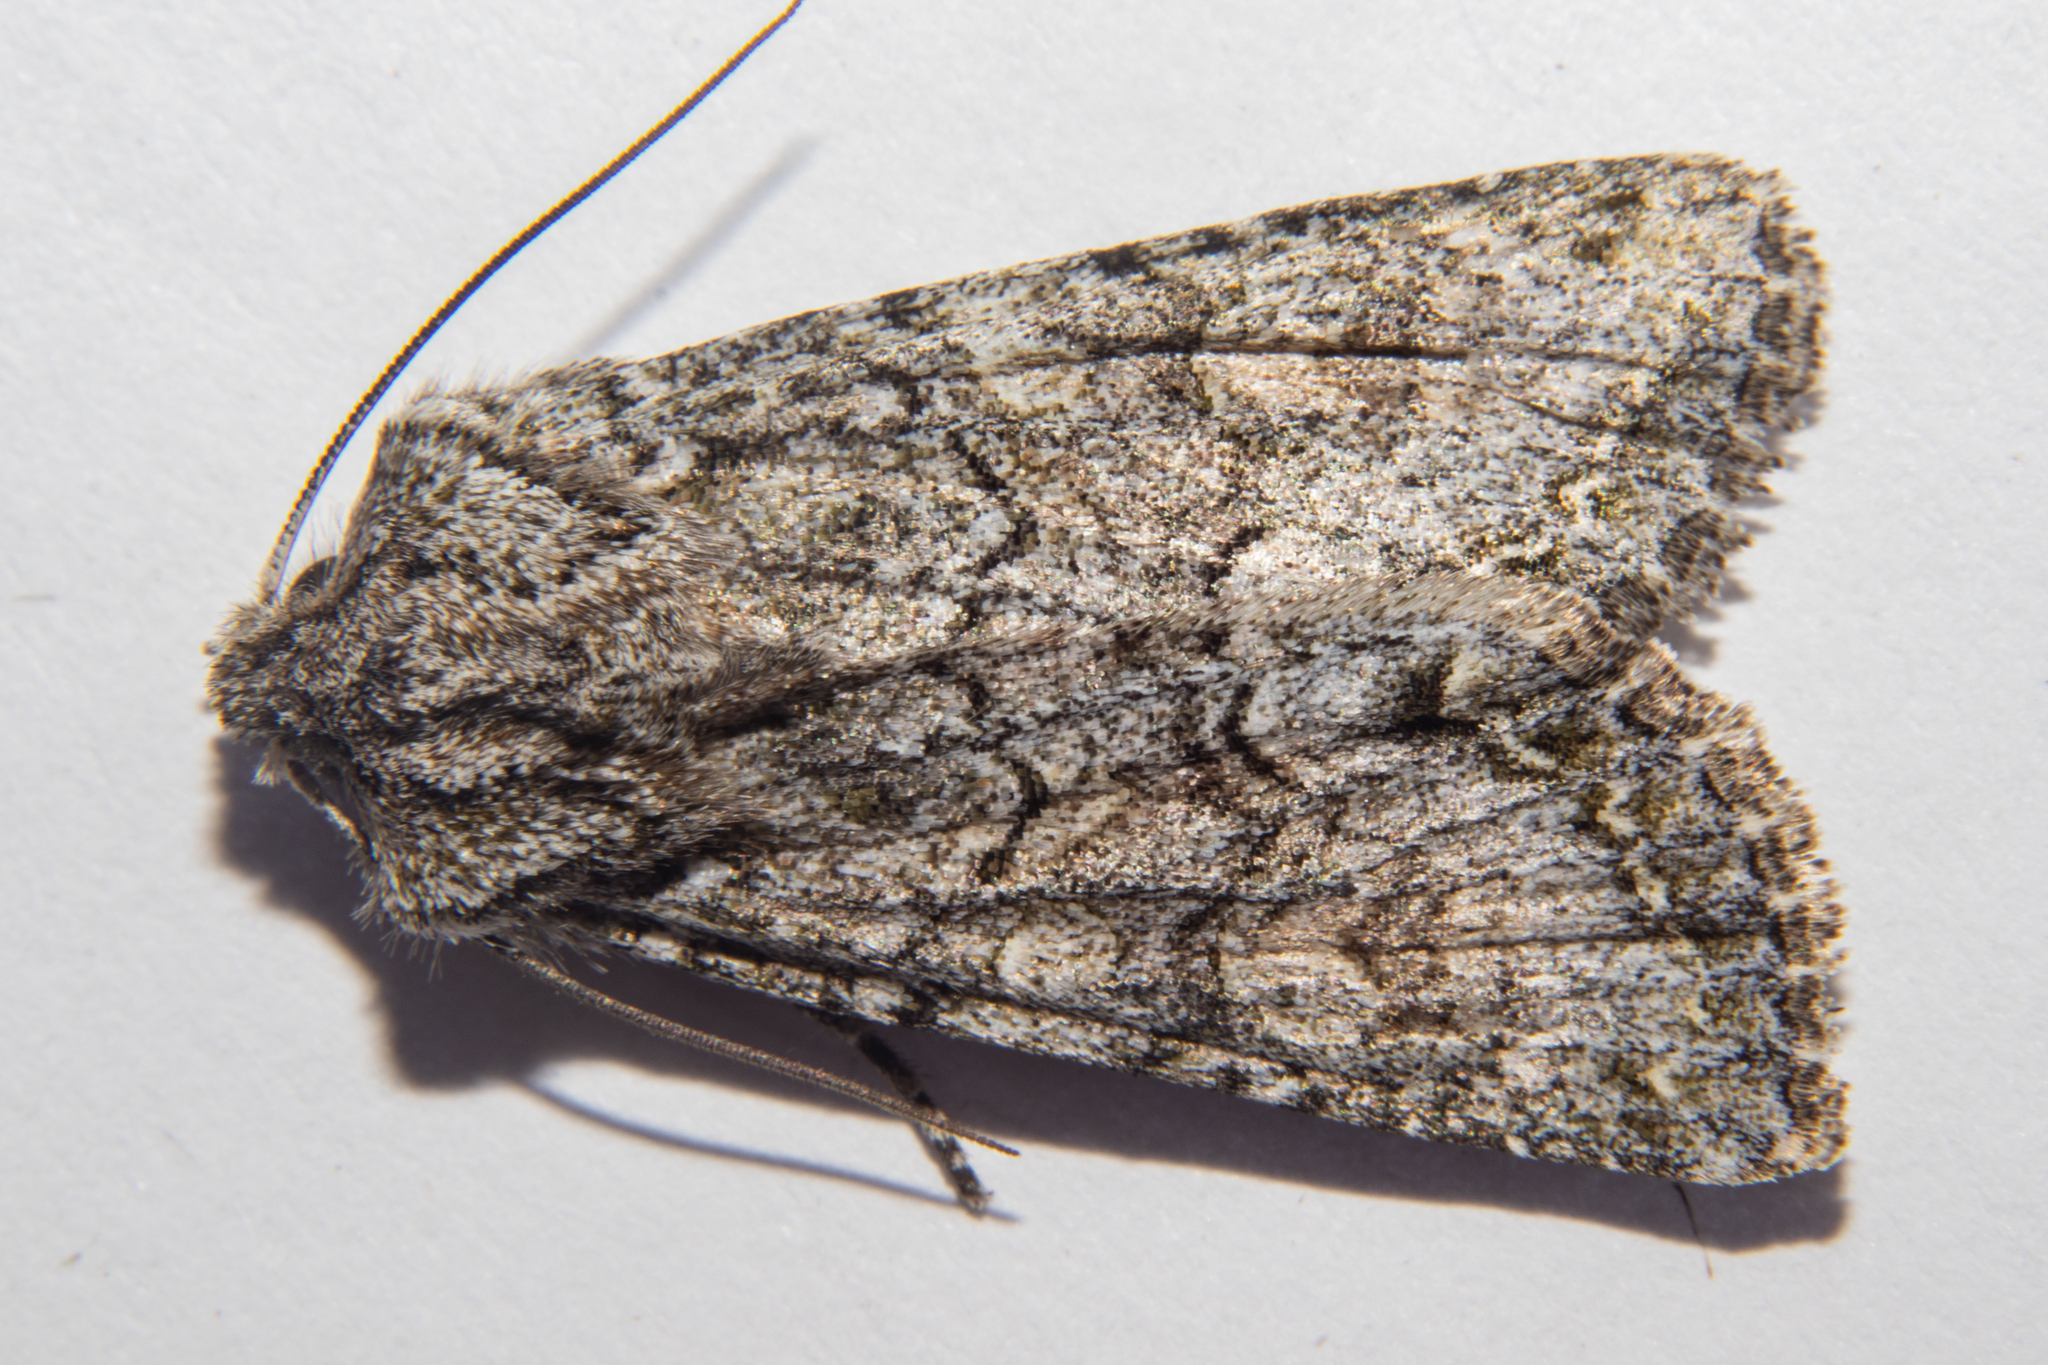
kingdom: Animalia
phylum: Arthropoda
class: Insecta
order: Lepidoptera
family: Noctuidae
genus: Ichneutica
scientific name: Ichneutica mutans
